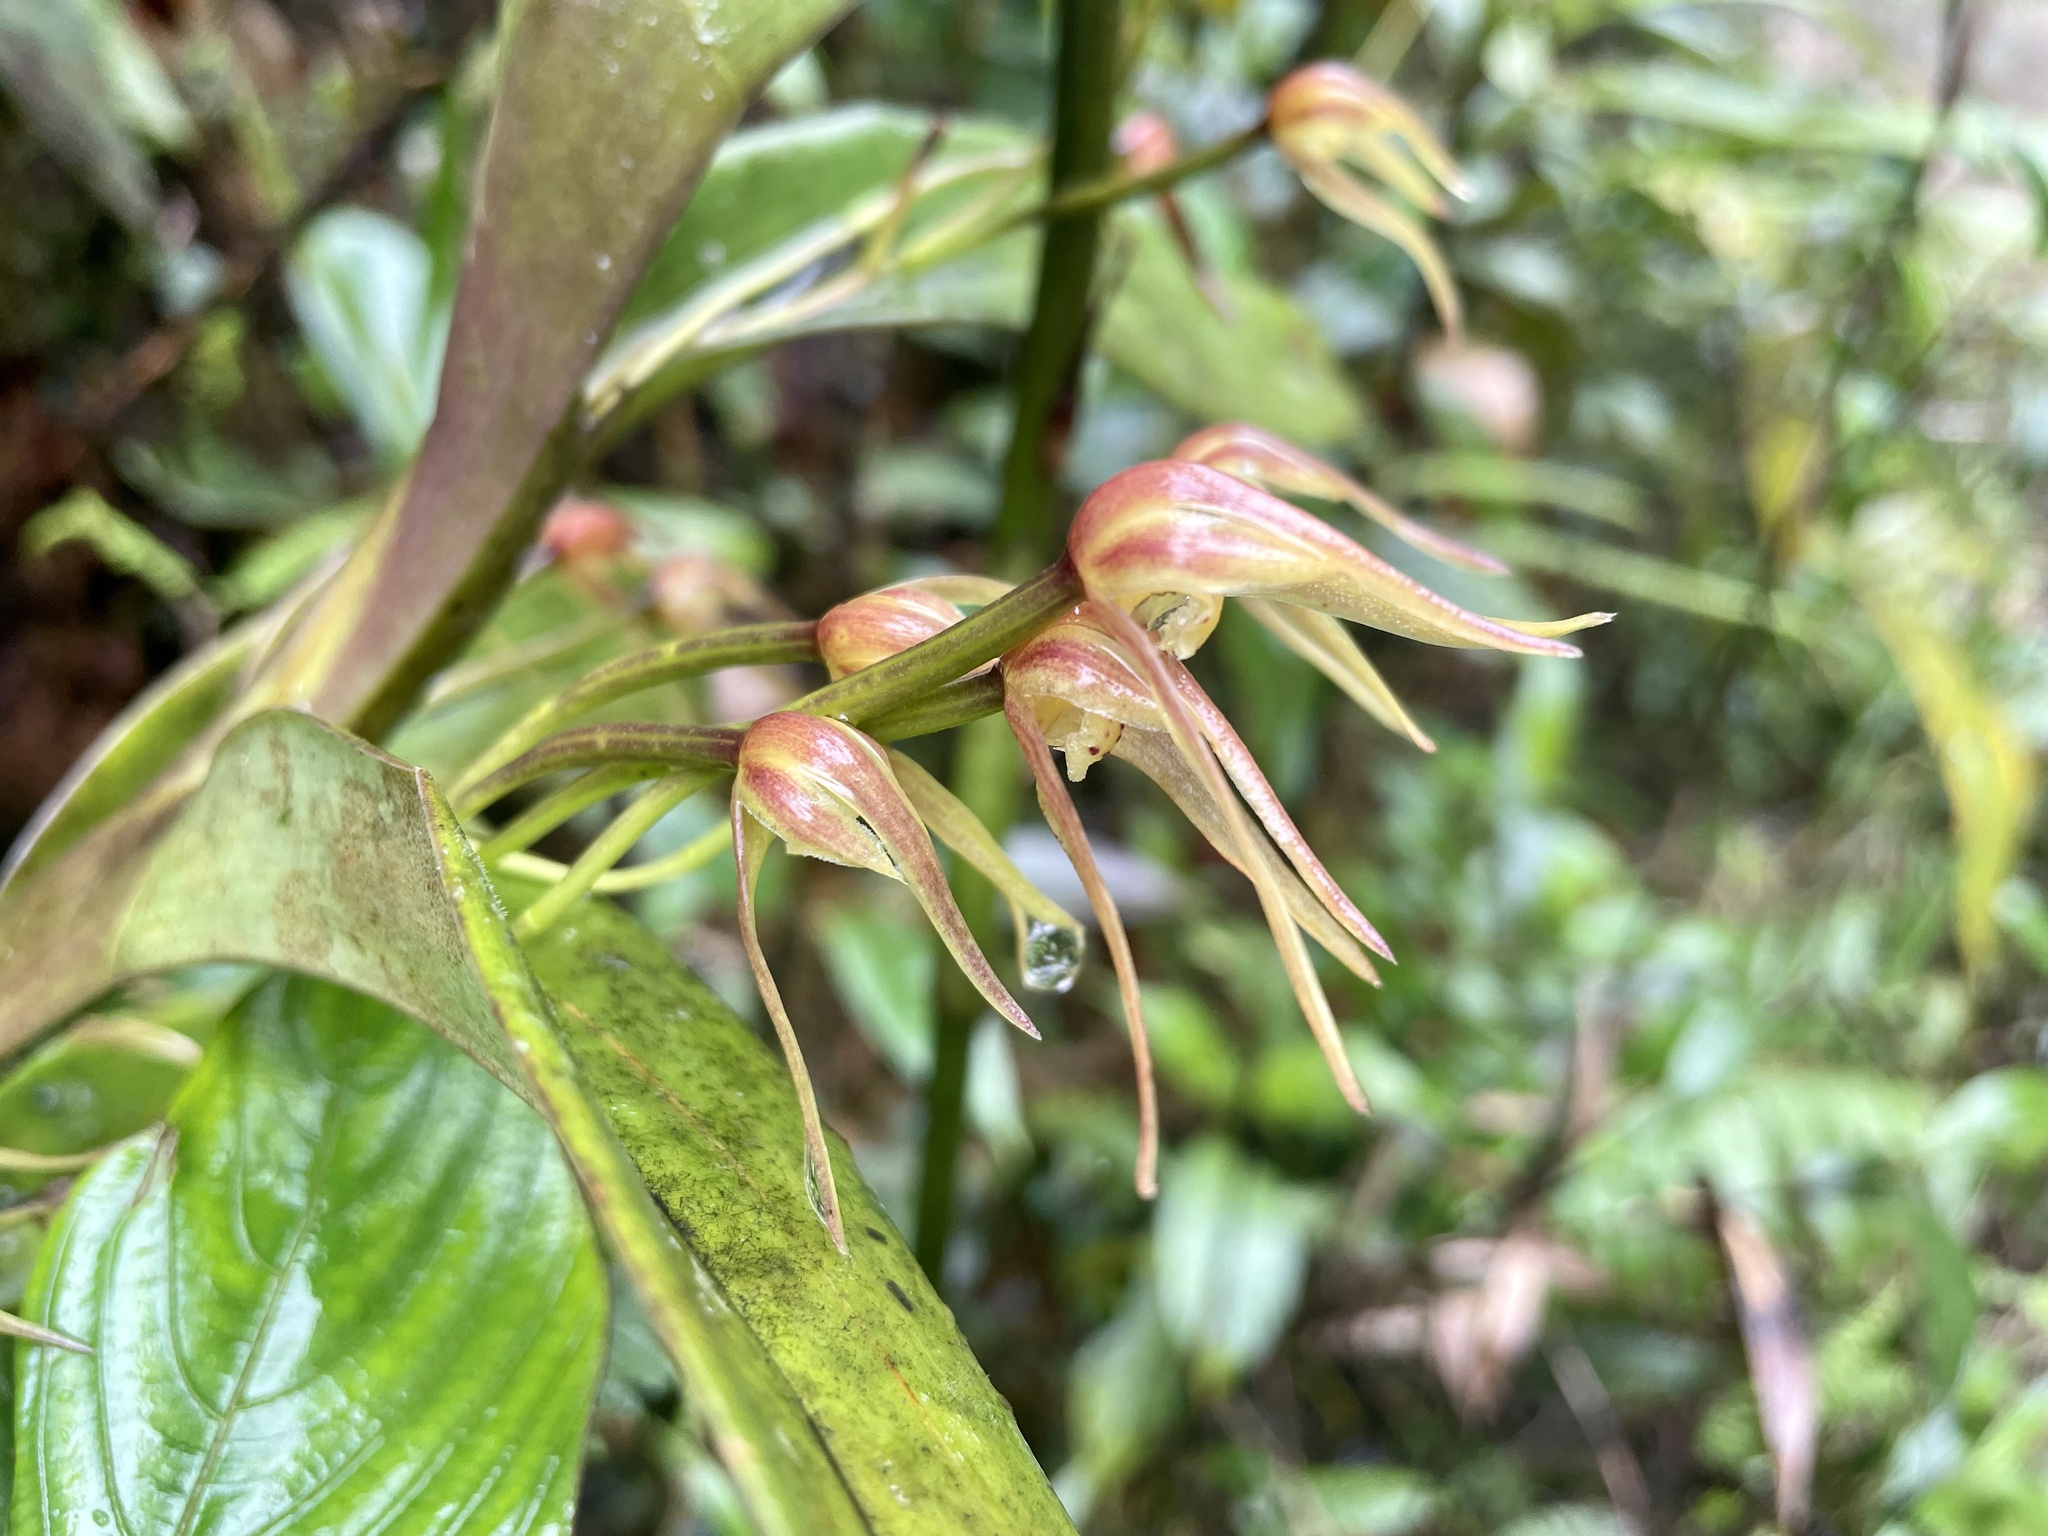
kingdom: Plantae
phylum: Tracheophyta
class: Liliopsida
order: Asparagales
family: Orchidaceae
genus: Maxillaria
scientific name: Maxillaria montezumae
